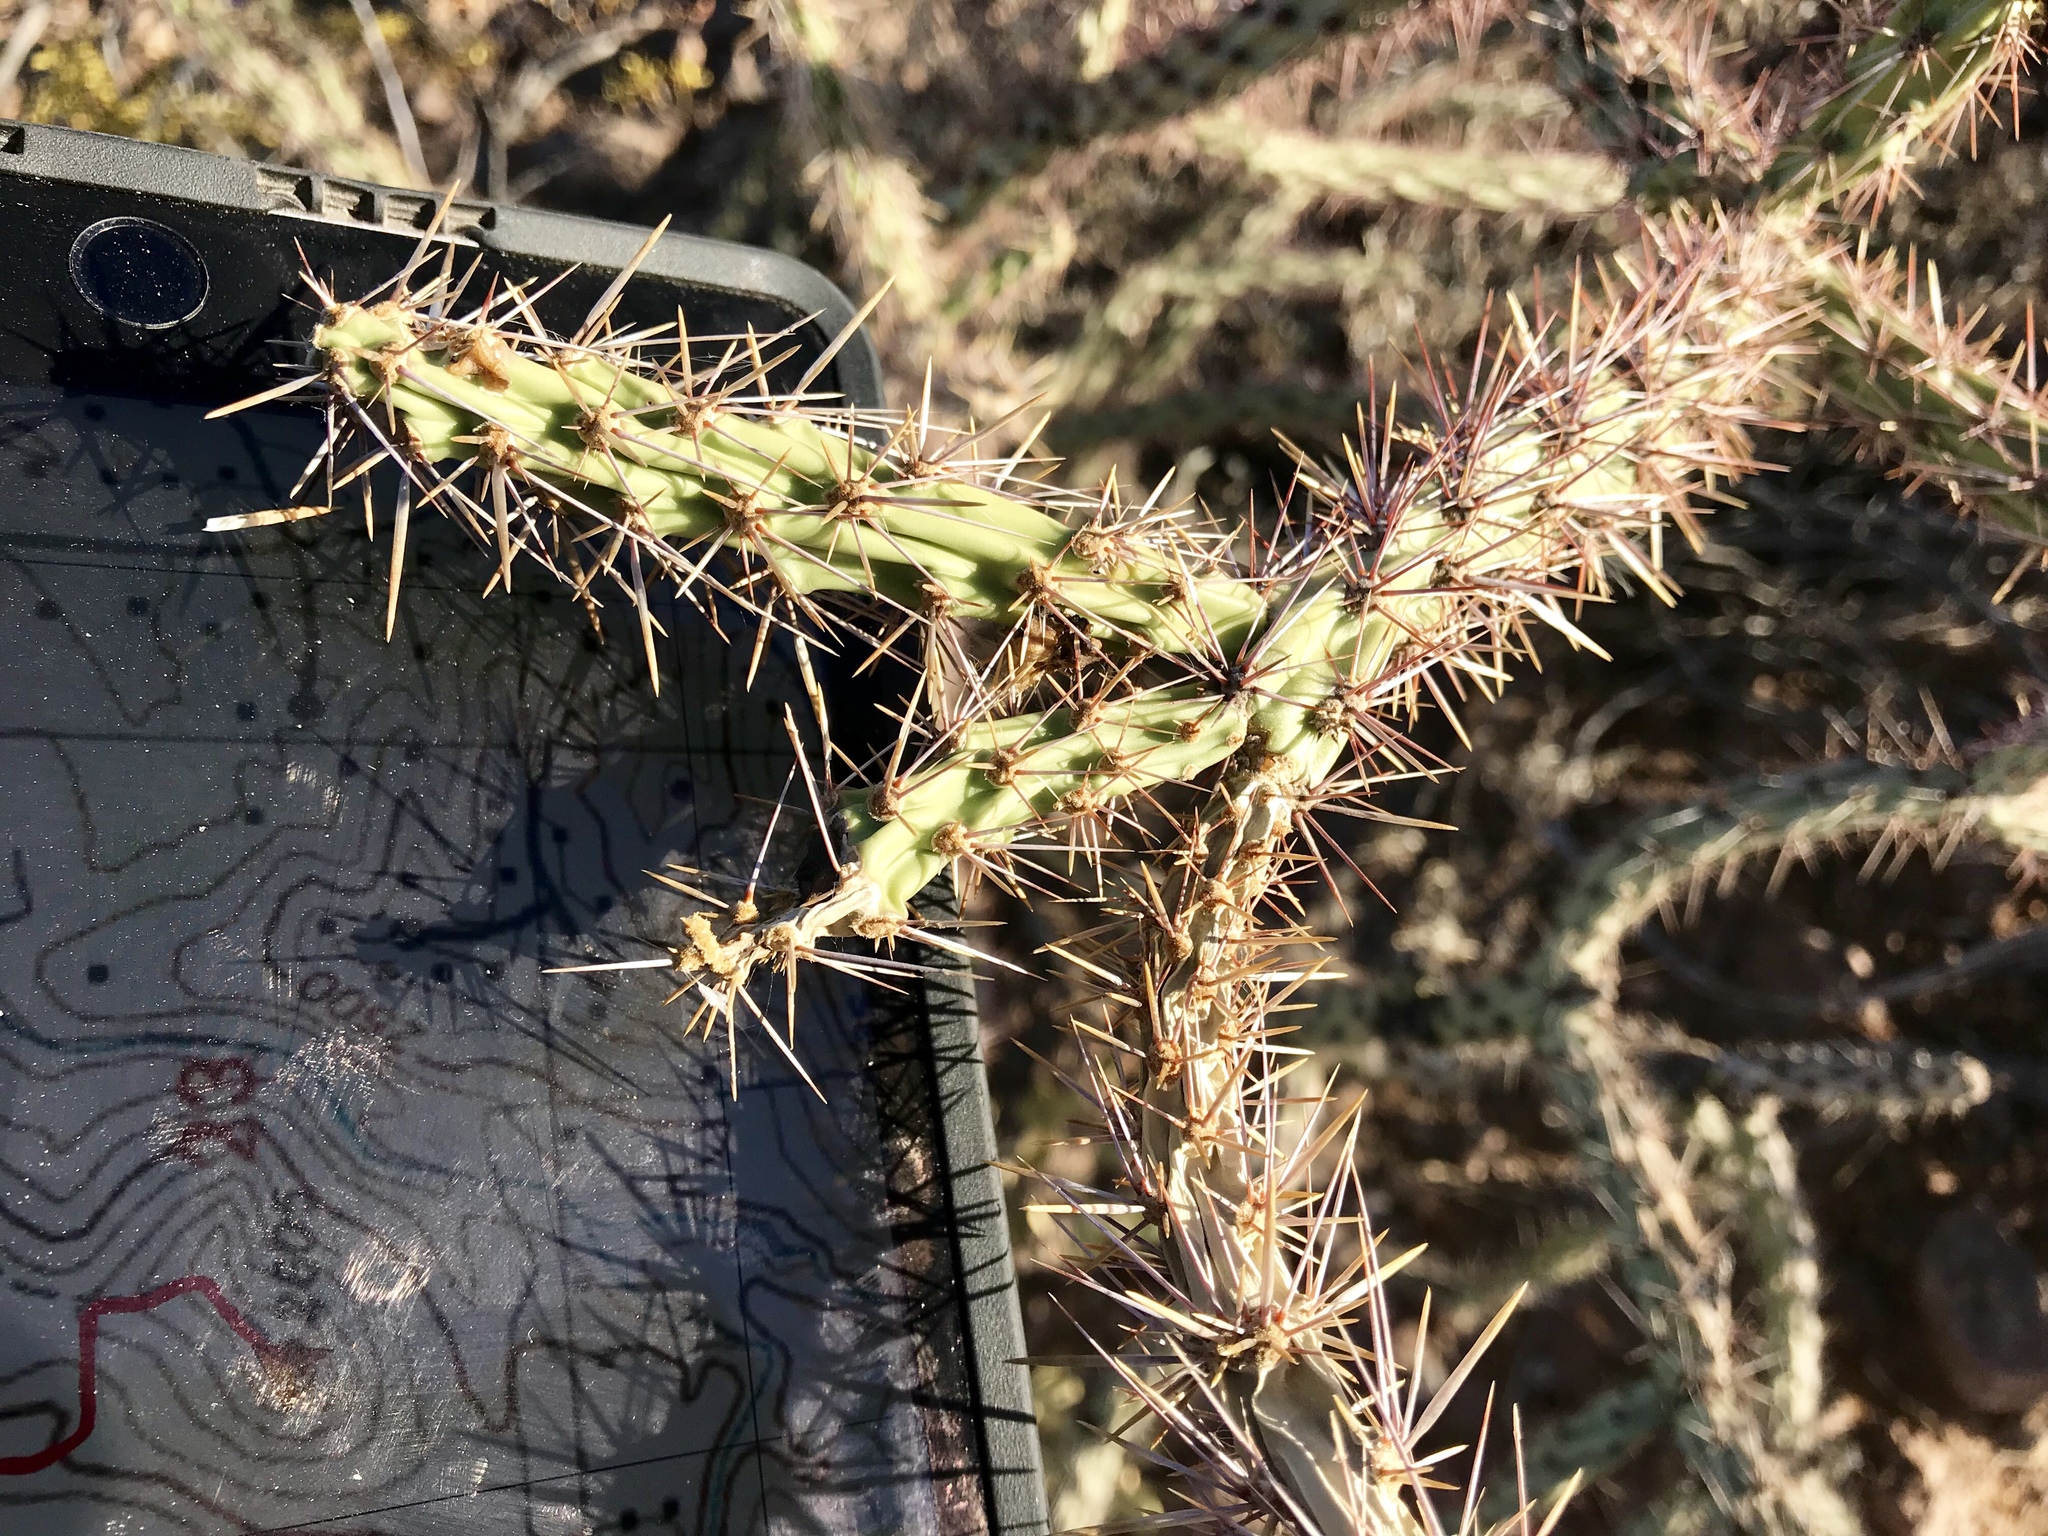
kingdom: Plantae
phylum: Tracheophyta
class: Magnoliopsida
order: Caryophyllales
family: Cactaceae
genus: Cylindropuntia
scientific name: Cylindropuntia acanthocarpa
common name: Buckhorn cholla
